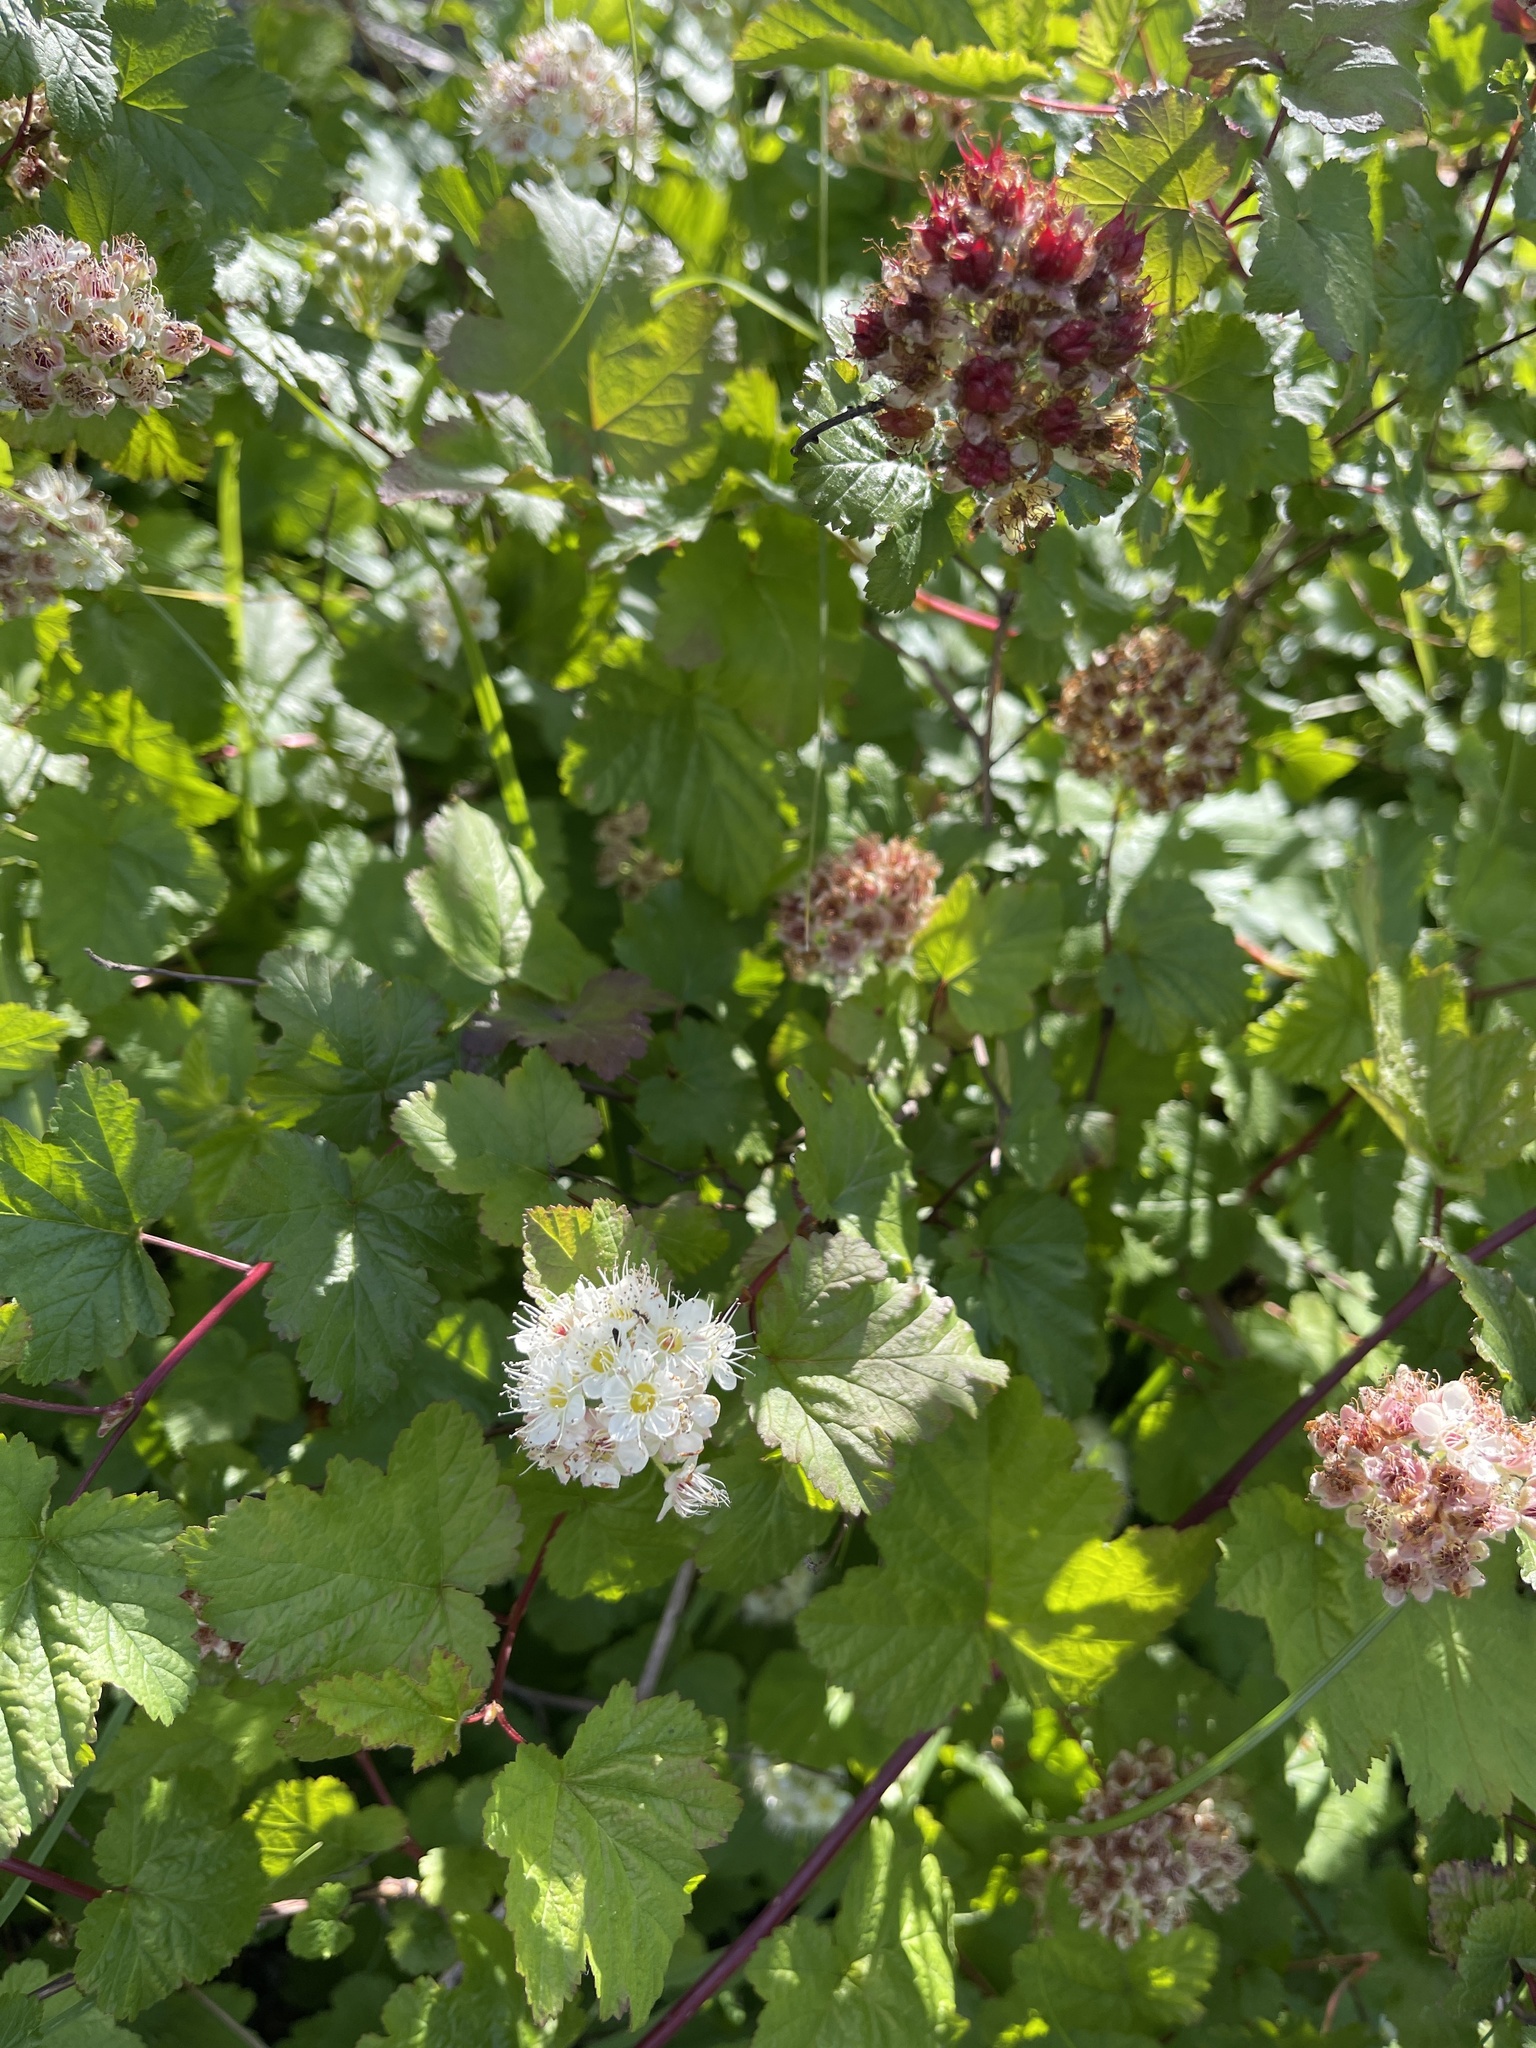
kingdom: Plantae
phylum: Tracheophyta
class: Magnoliopsida
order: Rosales
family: Rosaceae
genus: Physocarpus
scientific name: Physocarpus capitatus
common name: Pacific ninebark
